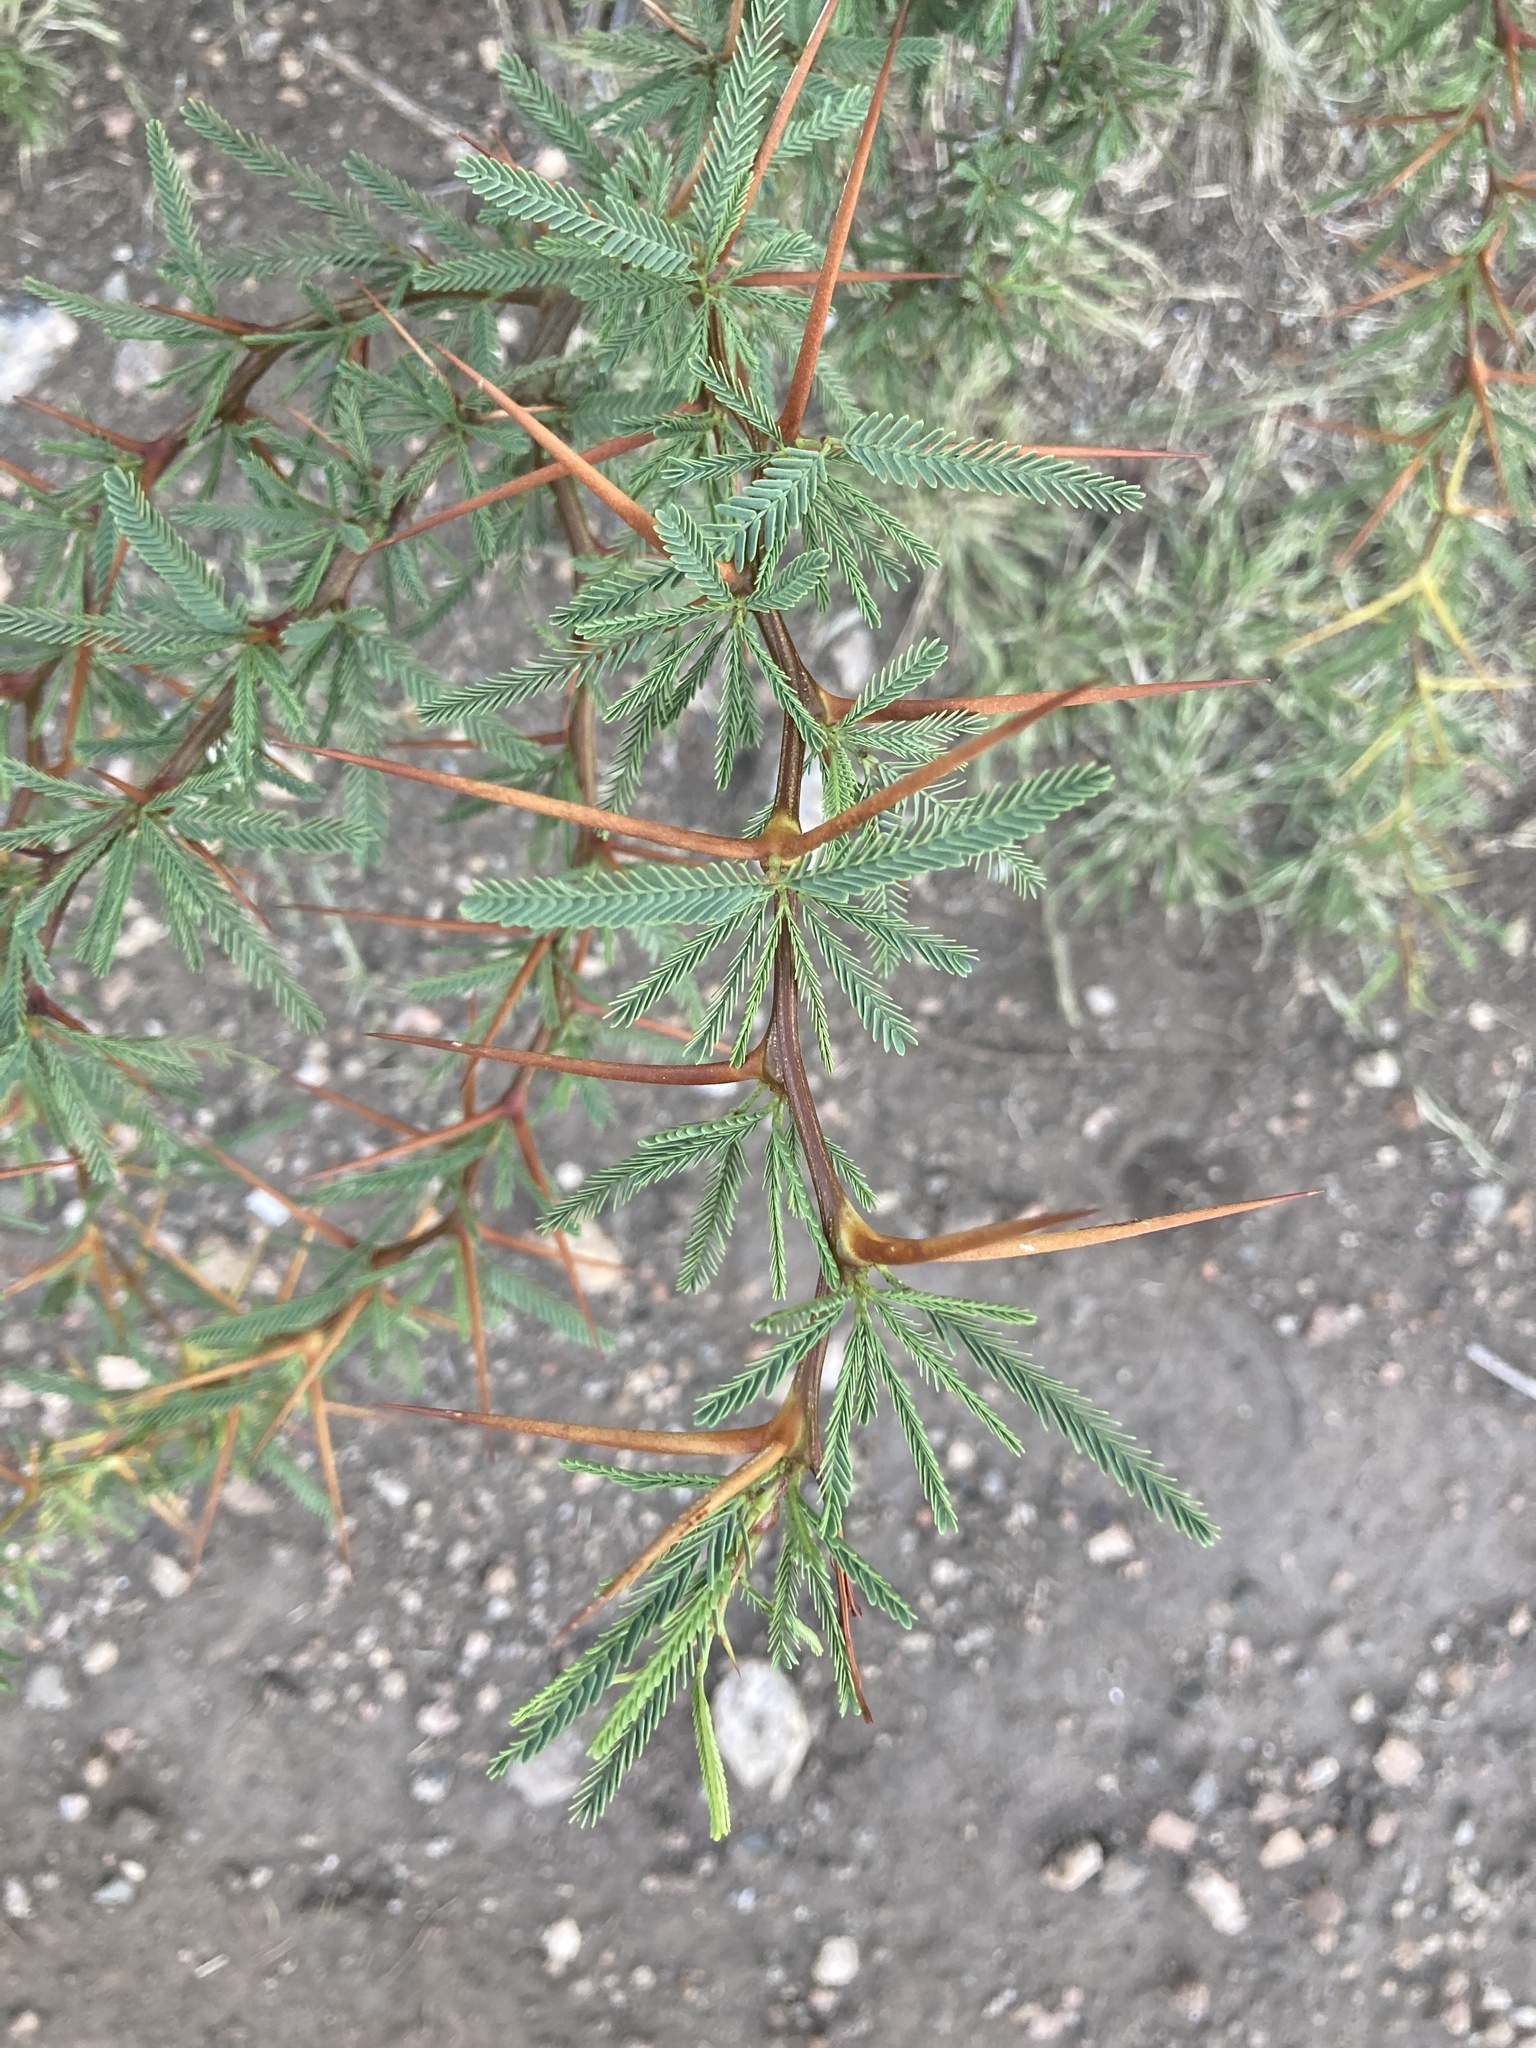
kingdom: Plantae
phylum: Tracheophyta
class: Magnoliopsida
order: Fabales
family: Fabaceae
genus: Prosopis
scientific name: Prosopis torquata
